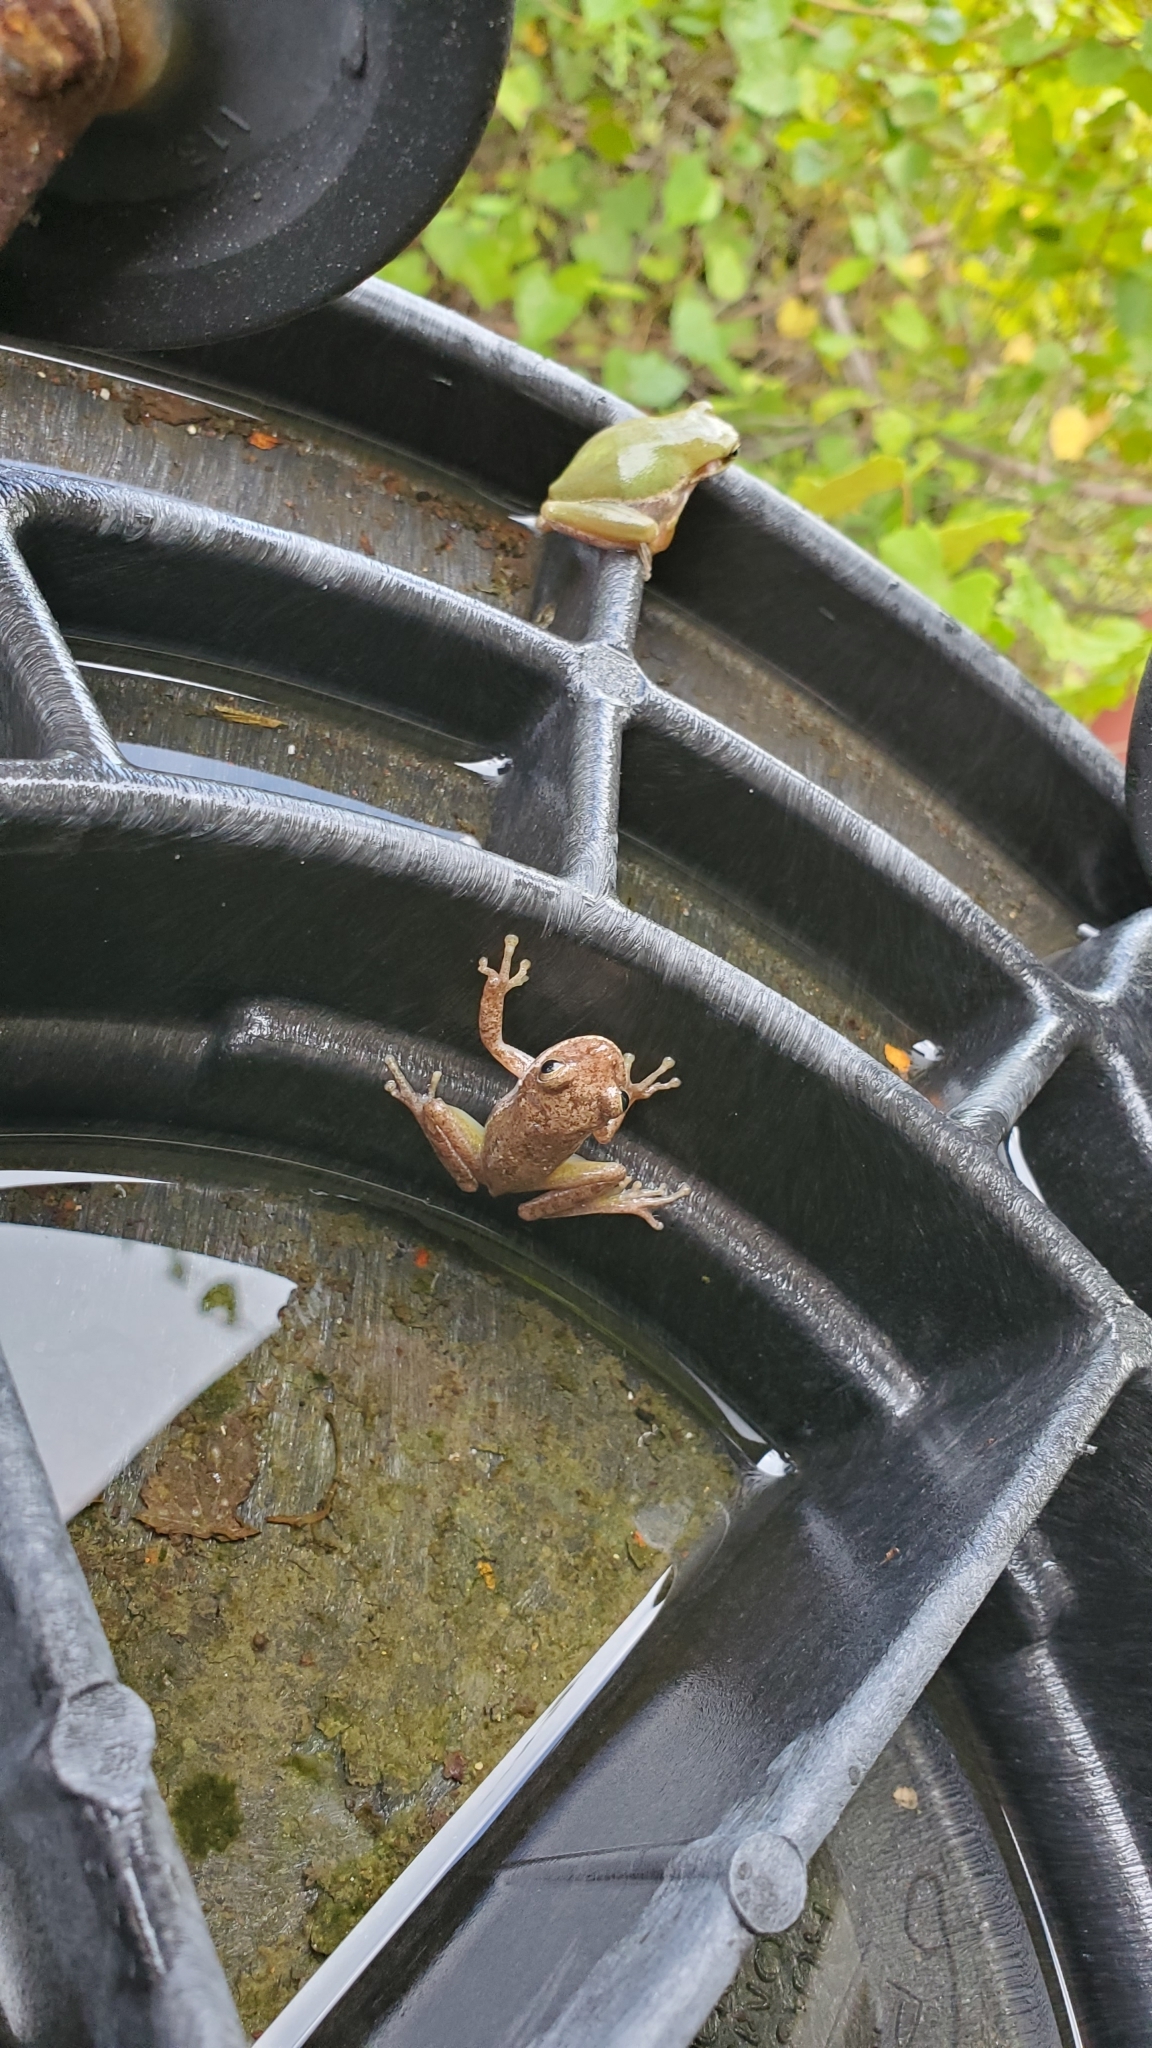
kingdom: Animalia
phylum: Chordata
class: Amphibia
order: Anura
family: Hylidae
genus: Dryophytes
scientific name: Dryophytes squirellus
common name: Squirrel treefrog
